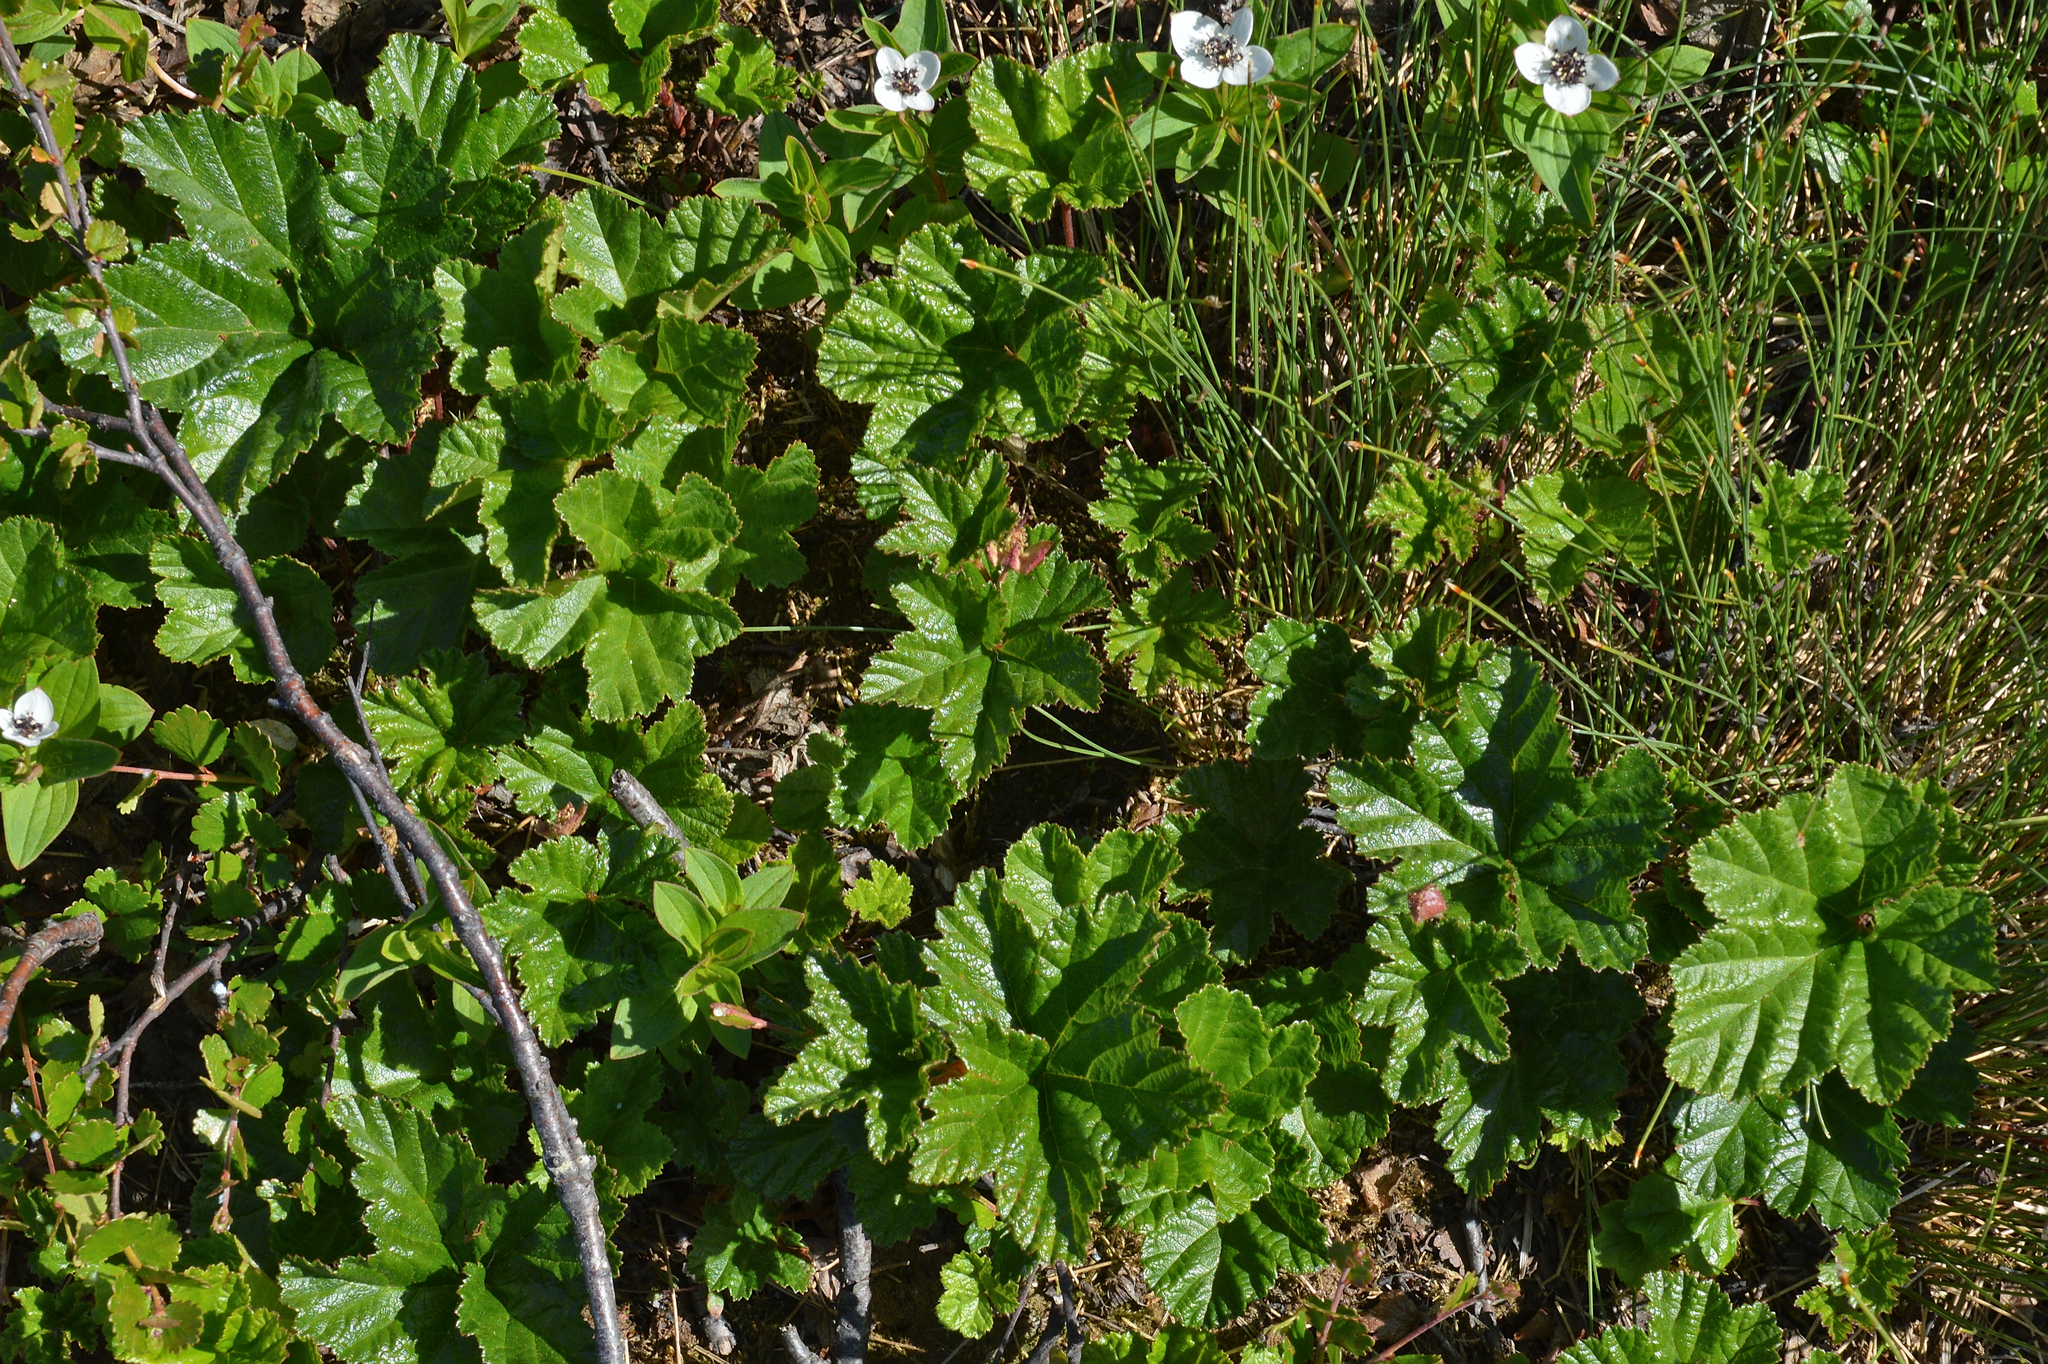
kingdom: Plantae
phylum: Tracheophyta
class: Magnoliopsida
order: Rosales
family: Rosaceae
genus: Rubus
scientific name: Rubus chamaemorus
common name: Cloudberry
